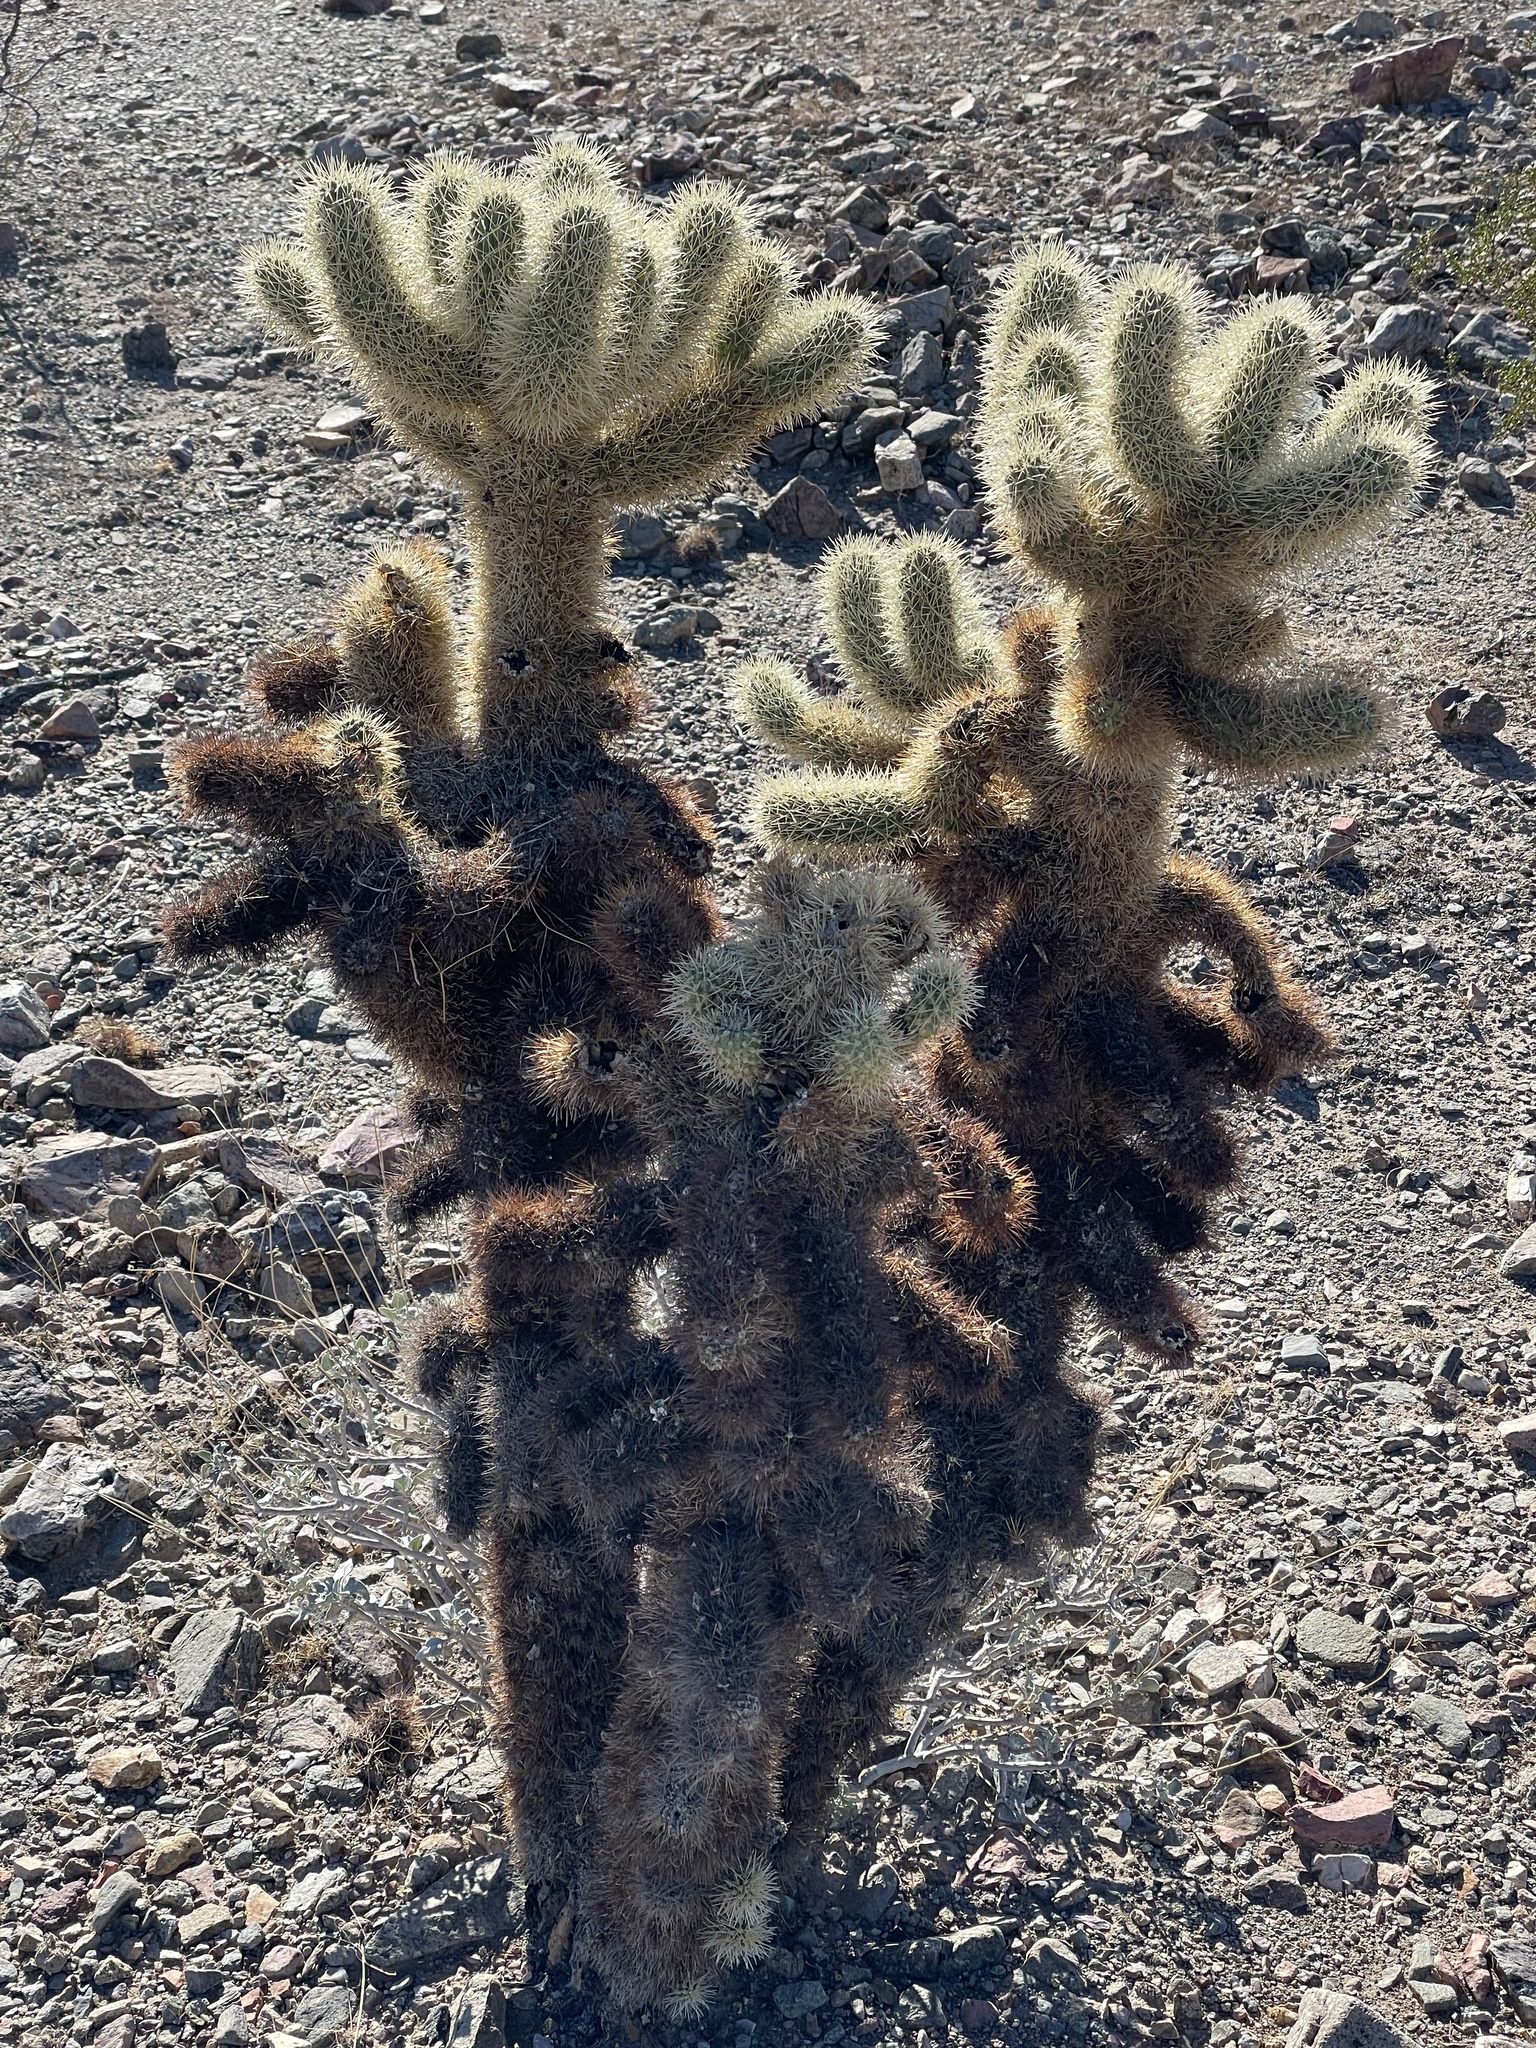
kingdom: Plantae
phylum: Tracheophyta
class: Magnoliopsida
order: Caryophyllales
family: Cactaceae
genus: Cylindropuntia
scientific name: Cylindropuntia fosbergii
